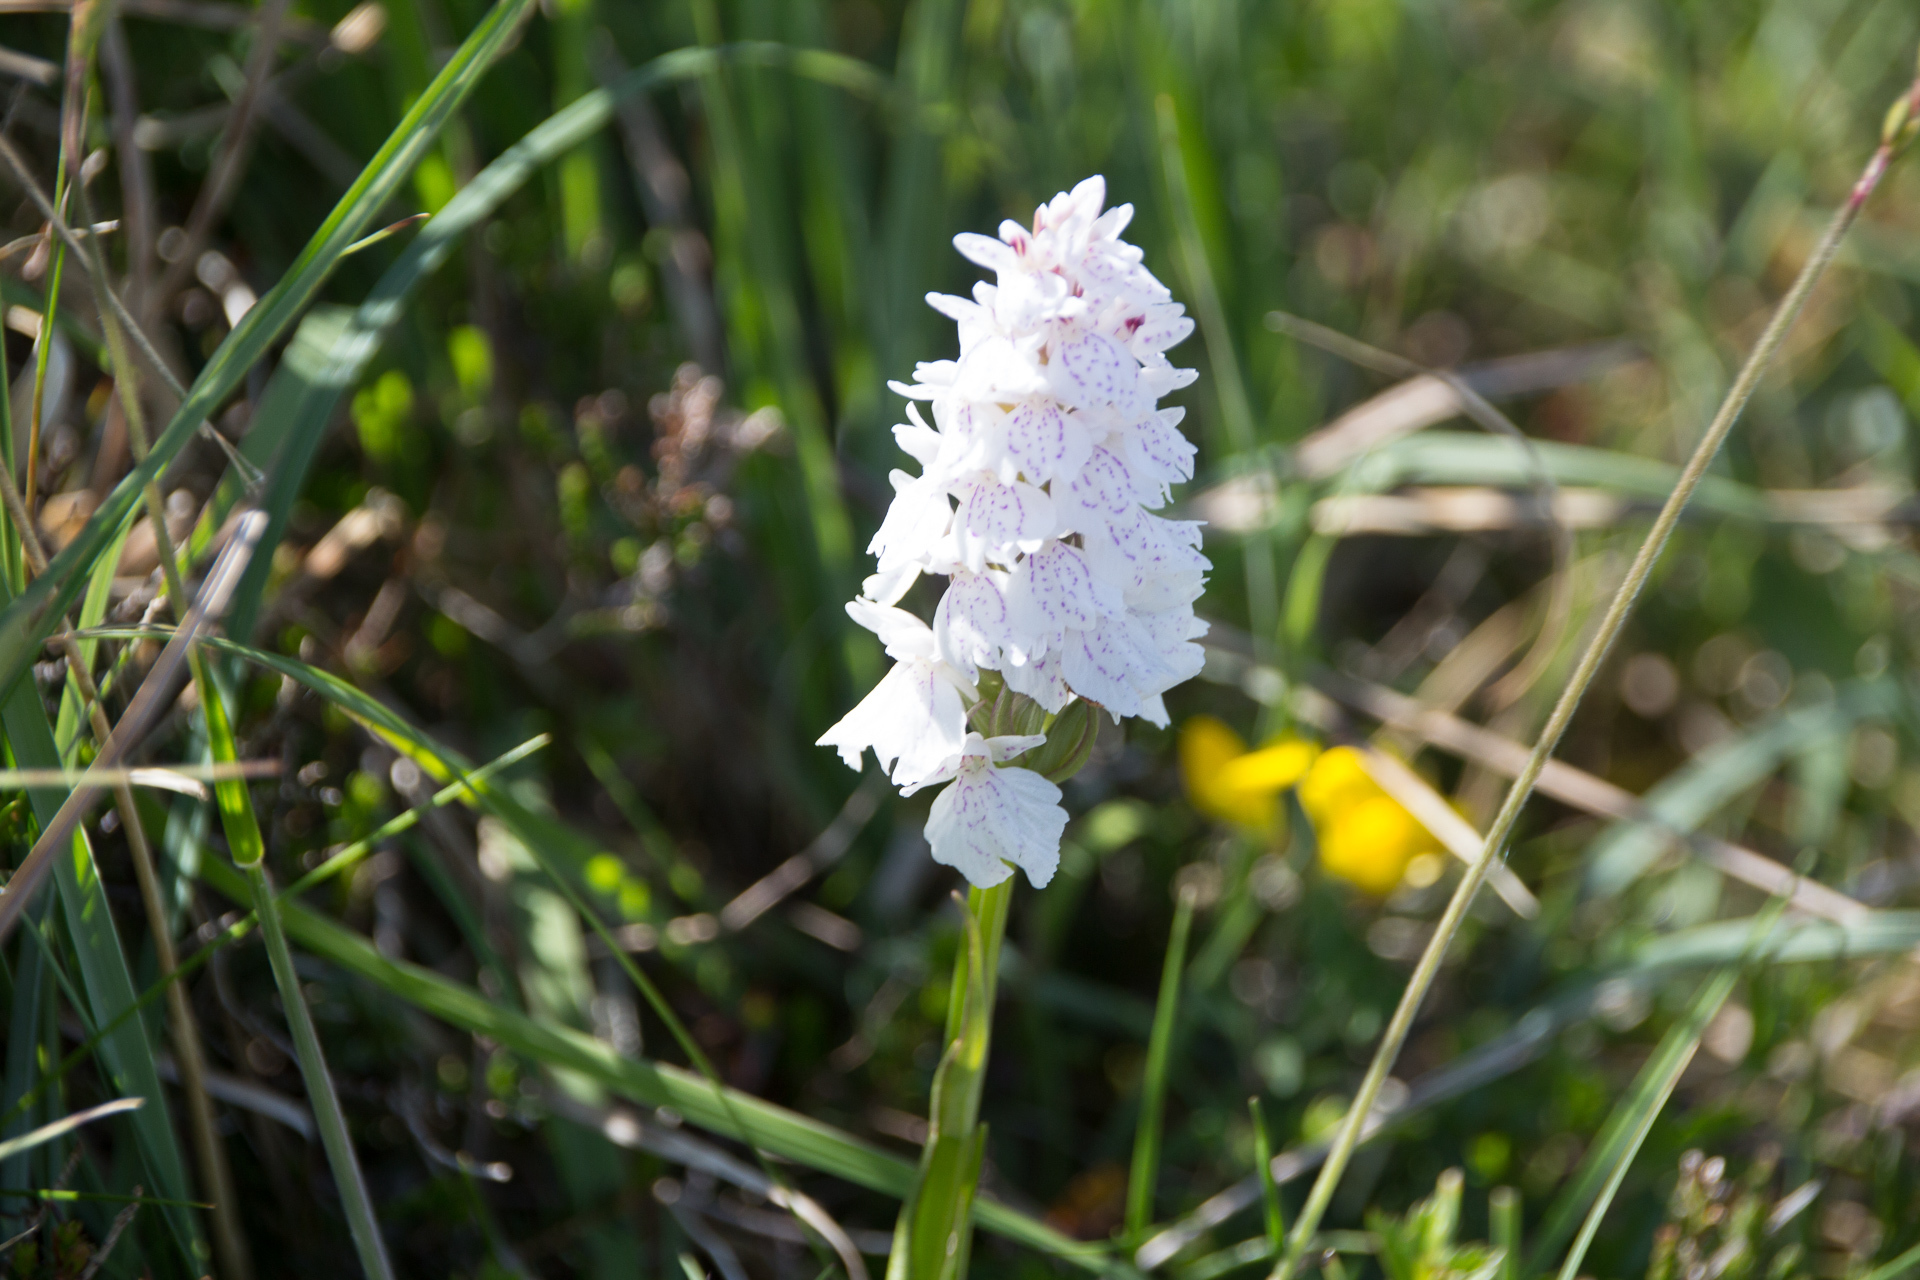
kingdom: Plantae
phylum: Tracheophyta
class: Liliopsida
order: Asparagales
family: Orchidaceae
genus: Dactylorhiza
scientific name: Dactylorhiza maculata
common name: Heath spotted-orchid
